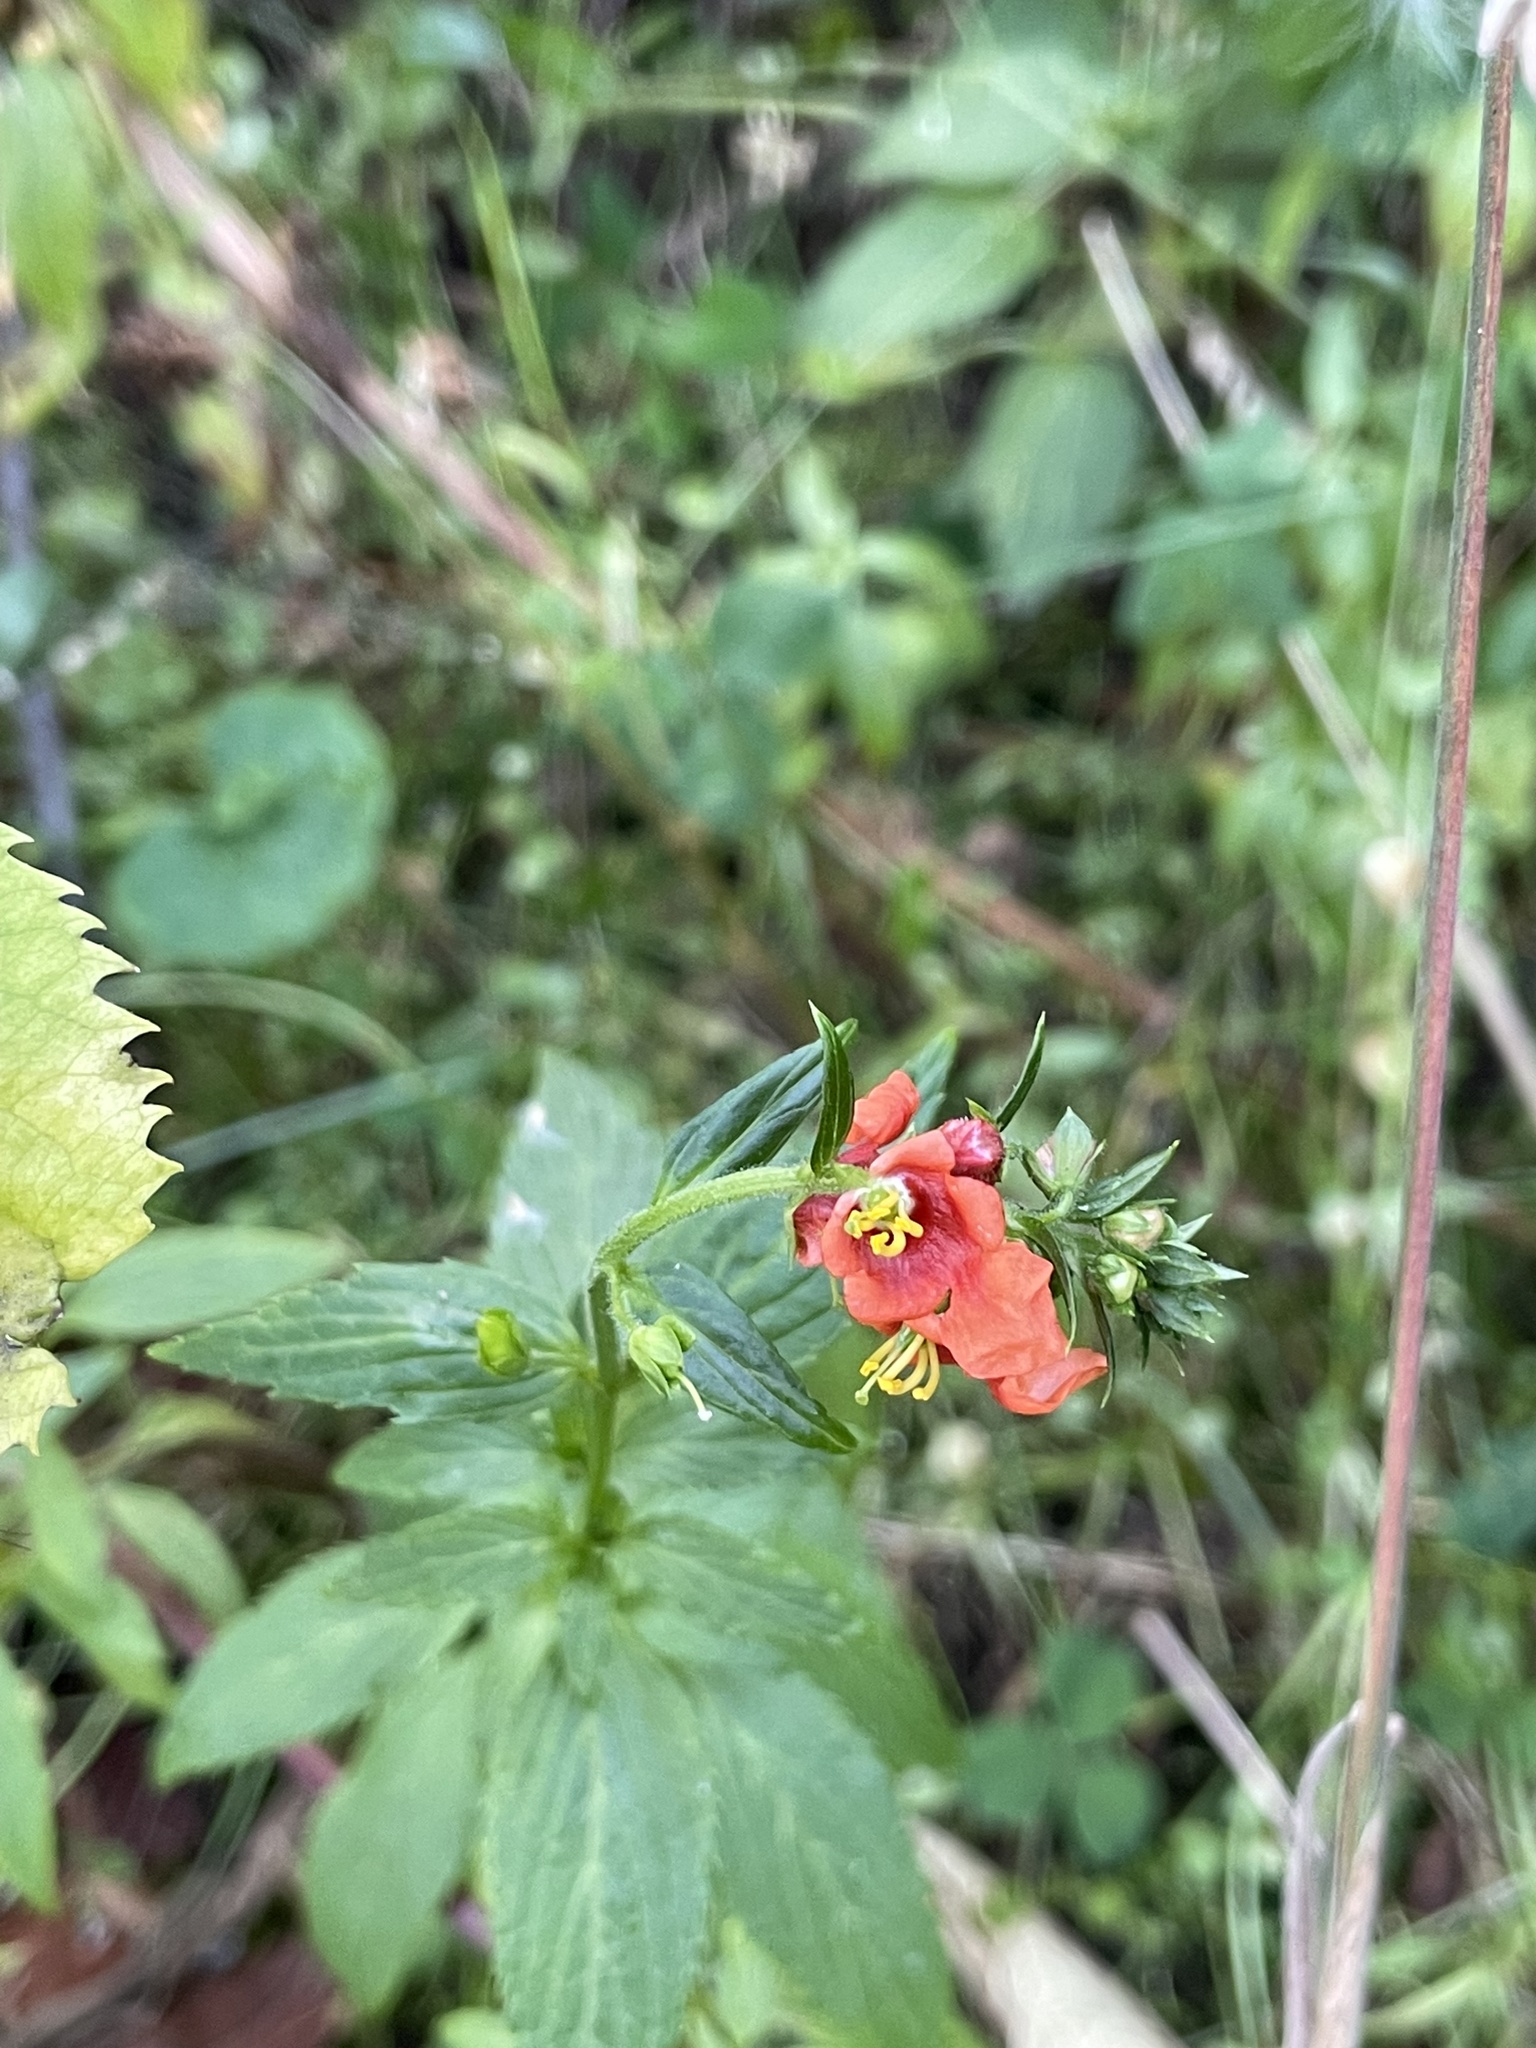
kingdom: Plantae
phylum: Tracheophyta
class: Magnoliopsida
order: Lamiales
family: Scrophulariaceae
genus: Alonsoa
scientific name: Alonsoa meridionalis
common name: Maskflower
